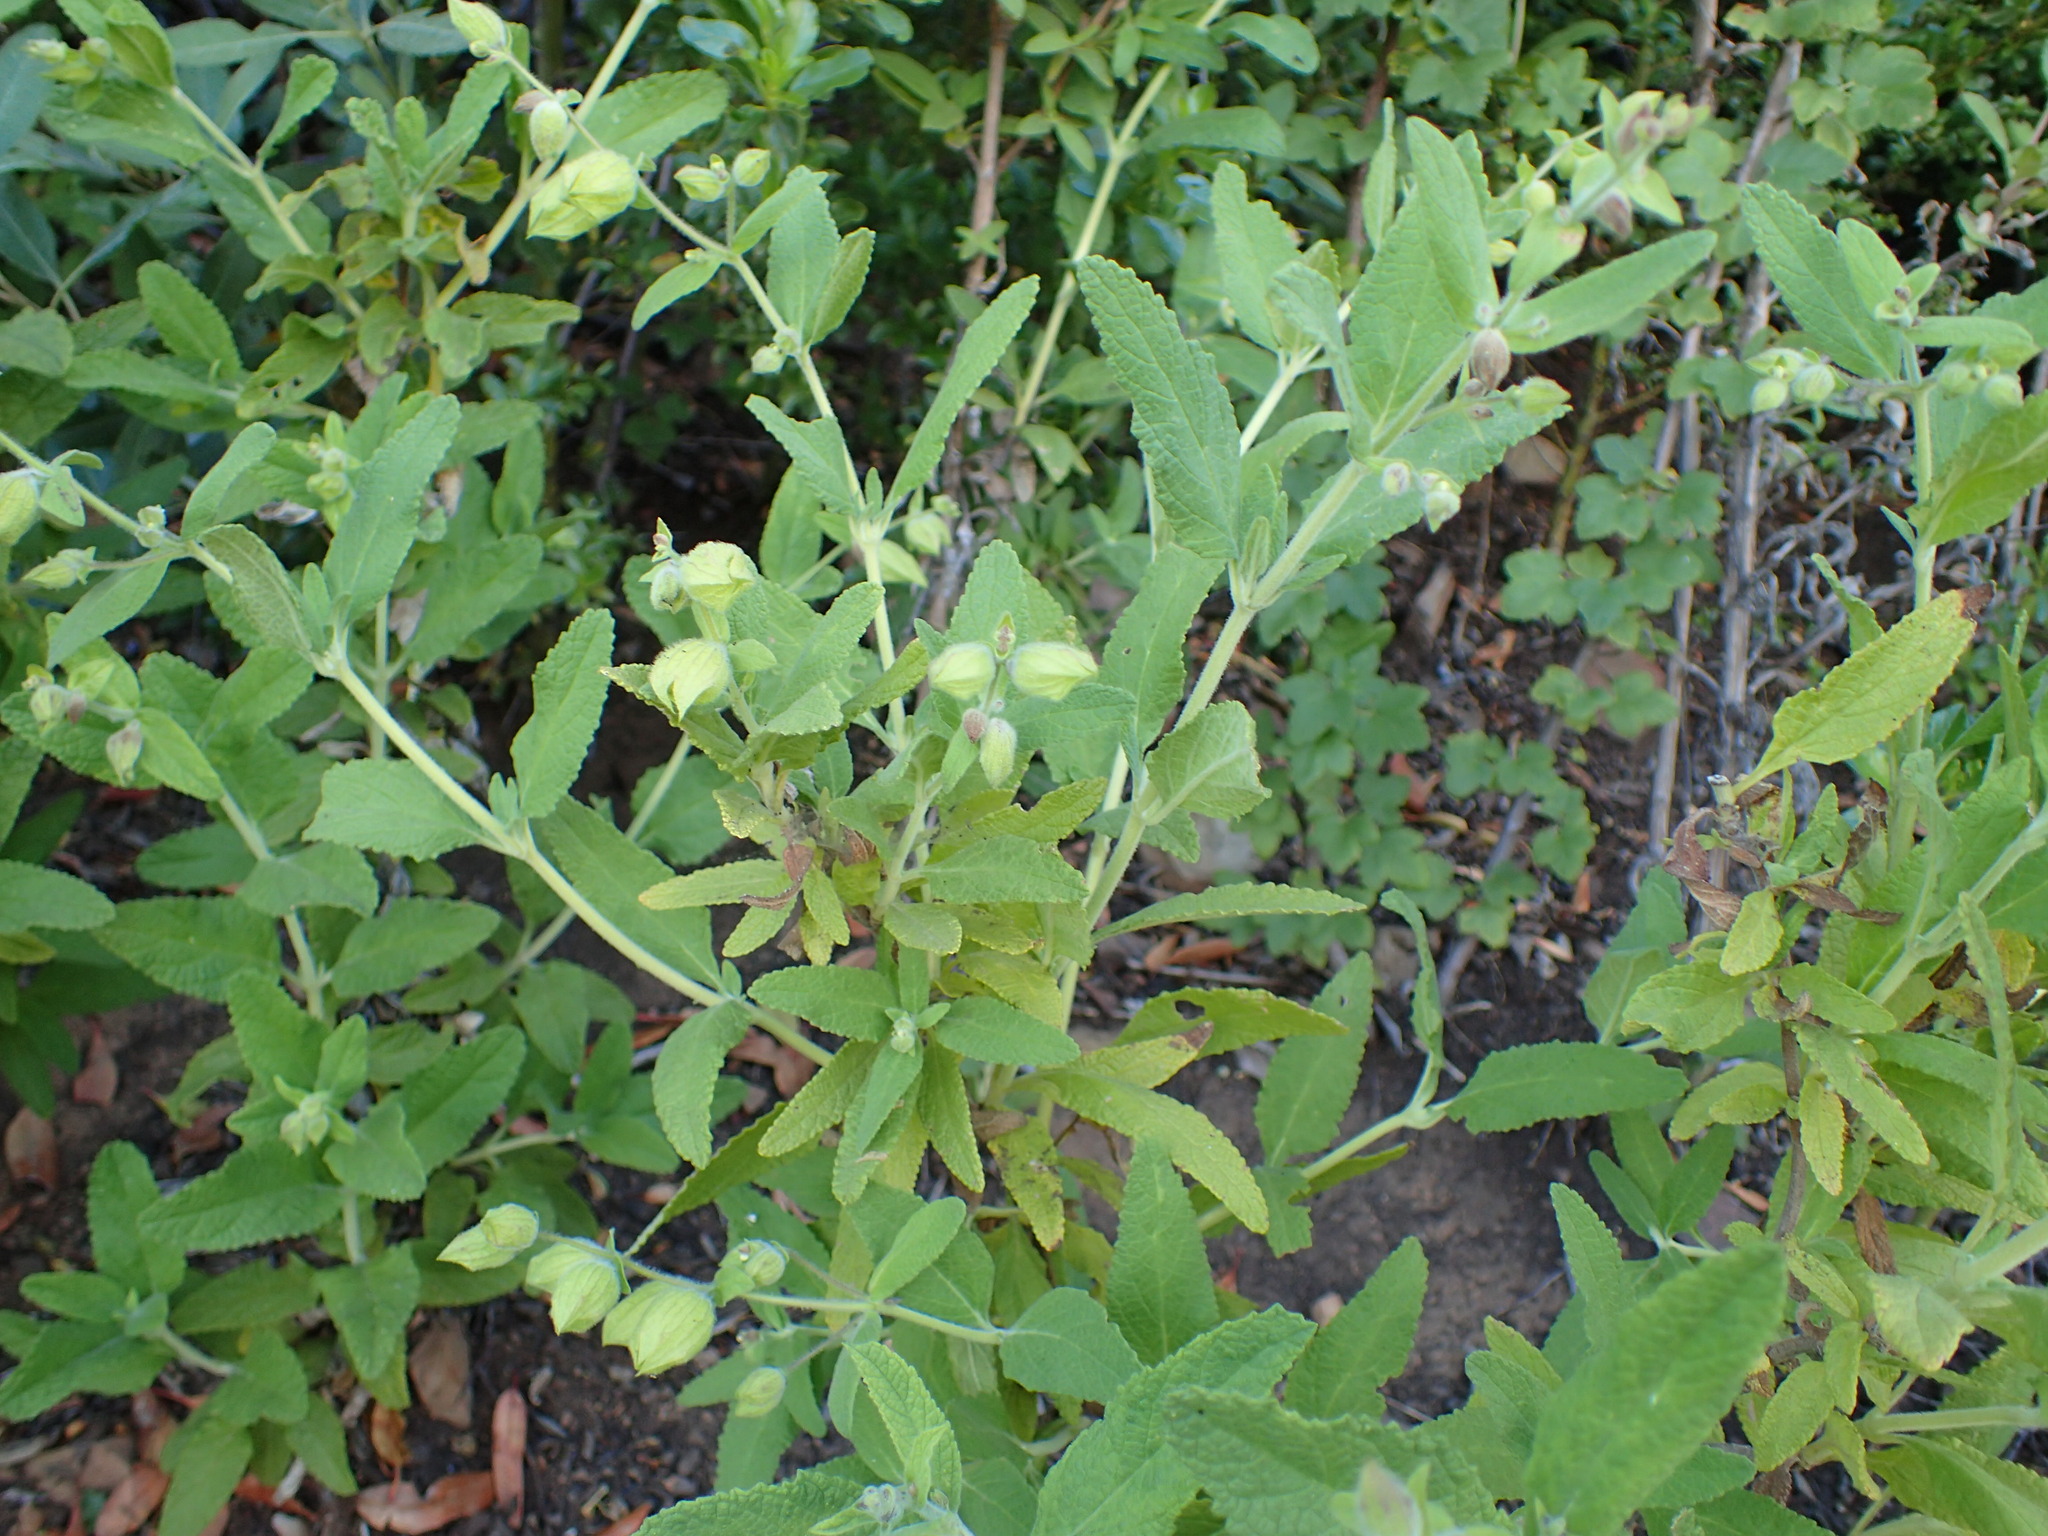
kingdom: Plantae
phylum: Tracheophyta
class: Magnoliopsida
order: Lamiales
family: Lamiaceae
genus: Lepechinia
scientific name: Lepechinia calycina
